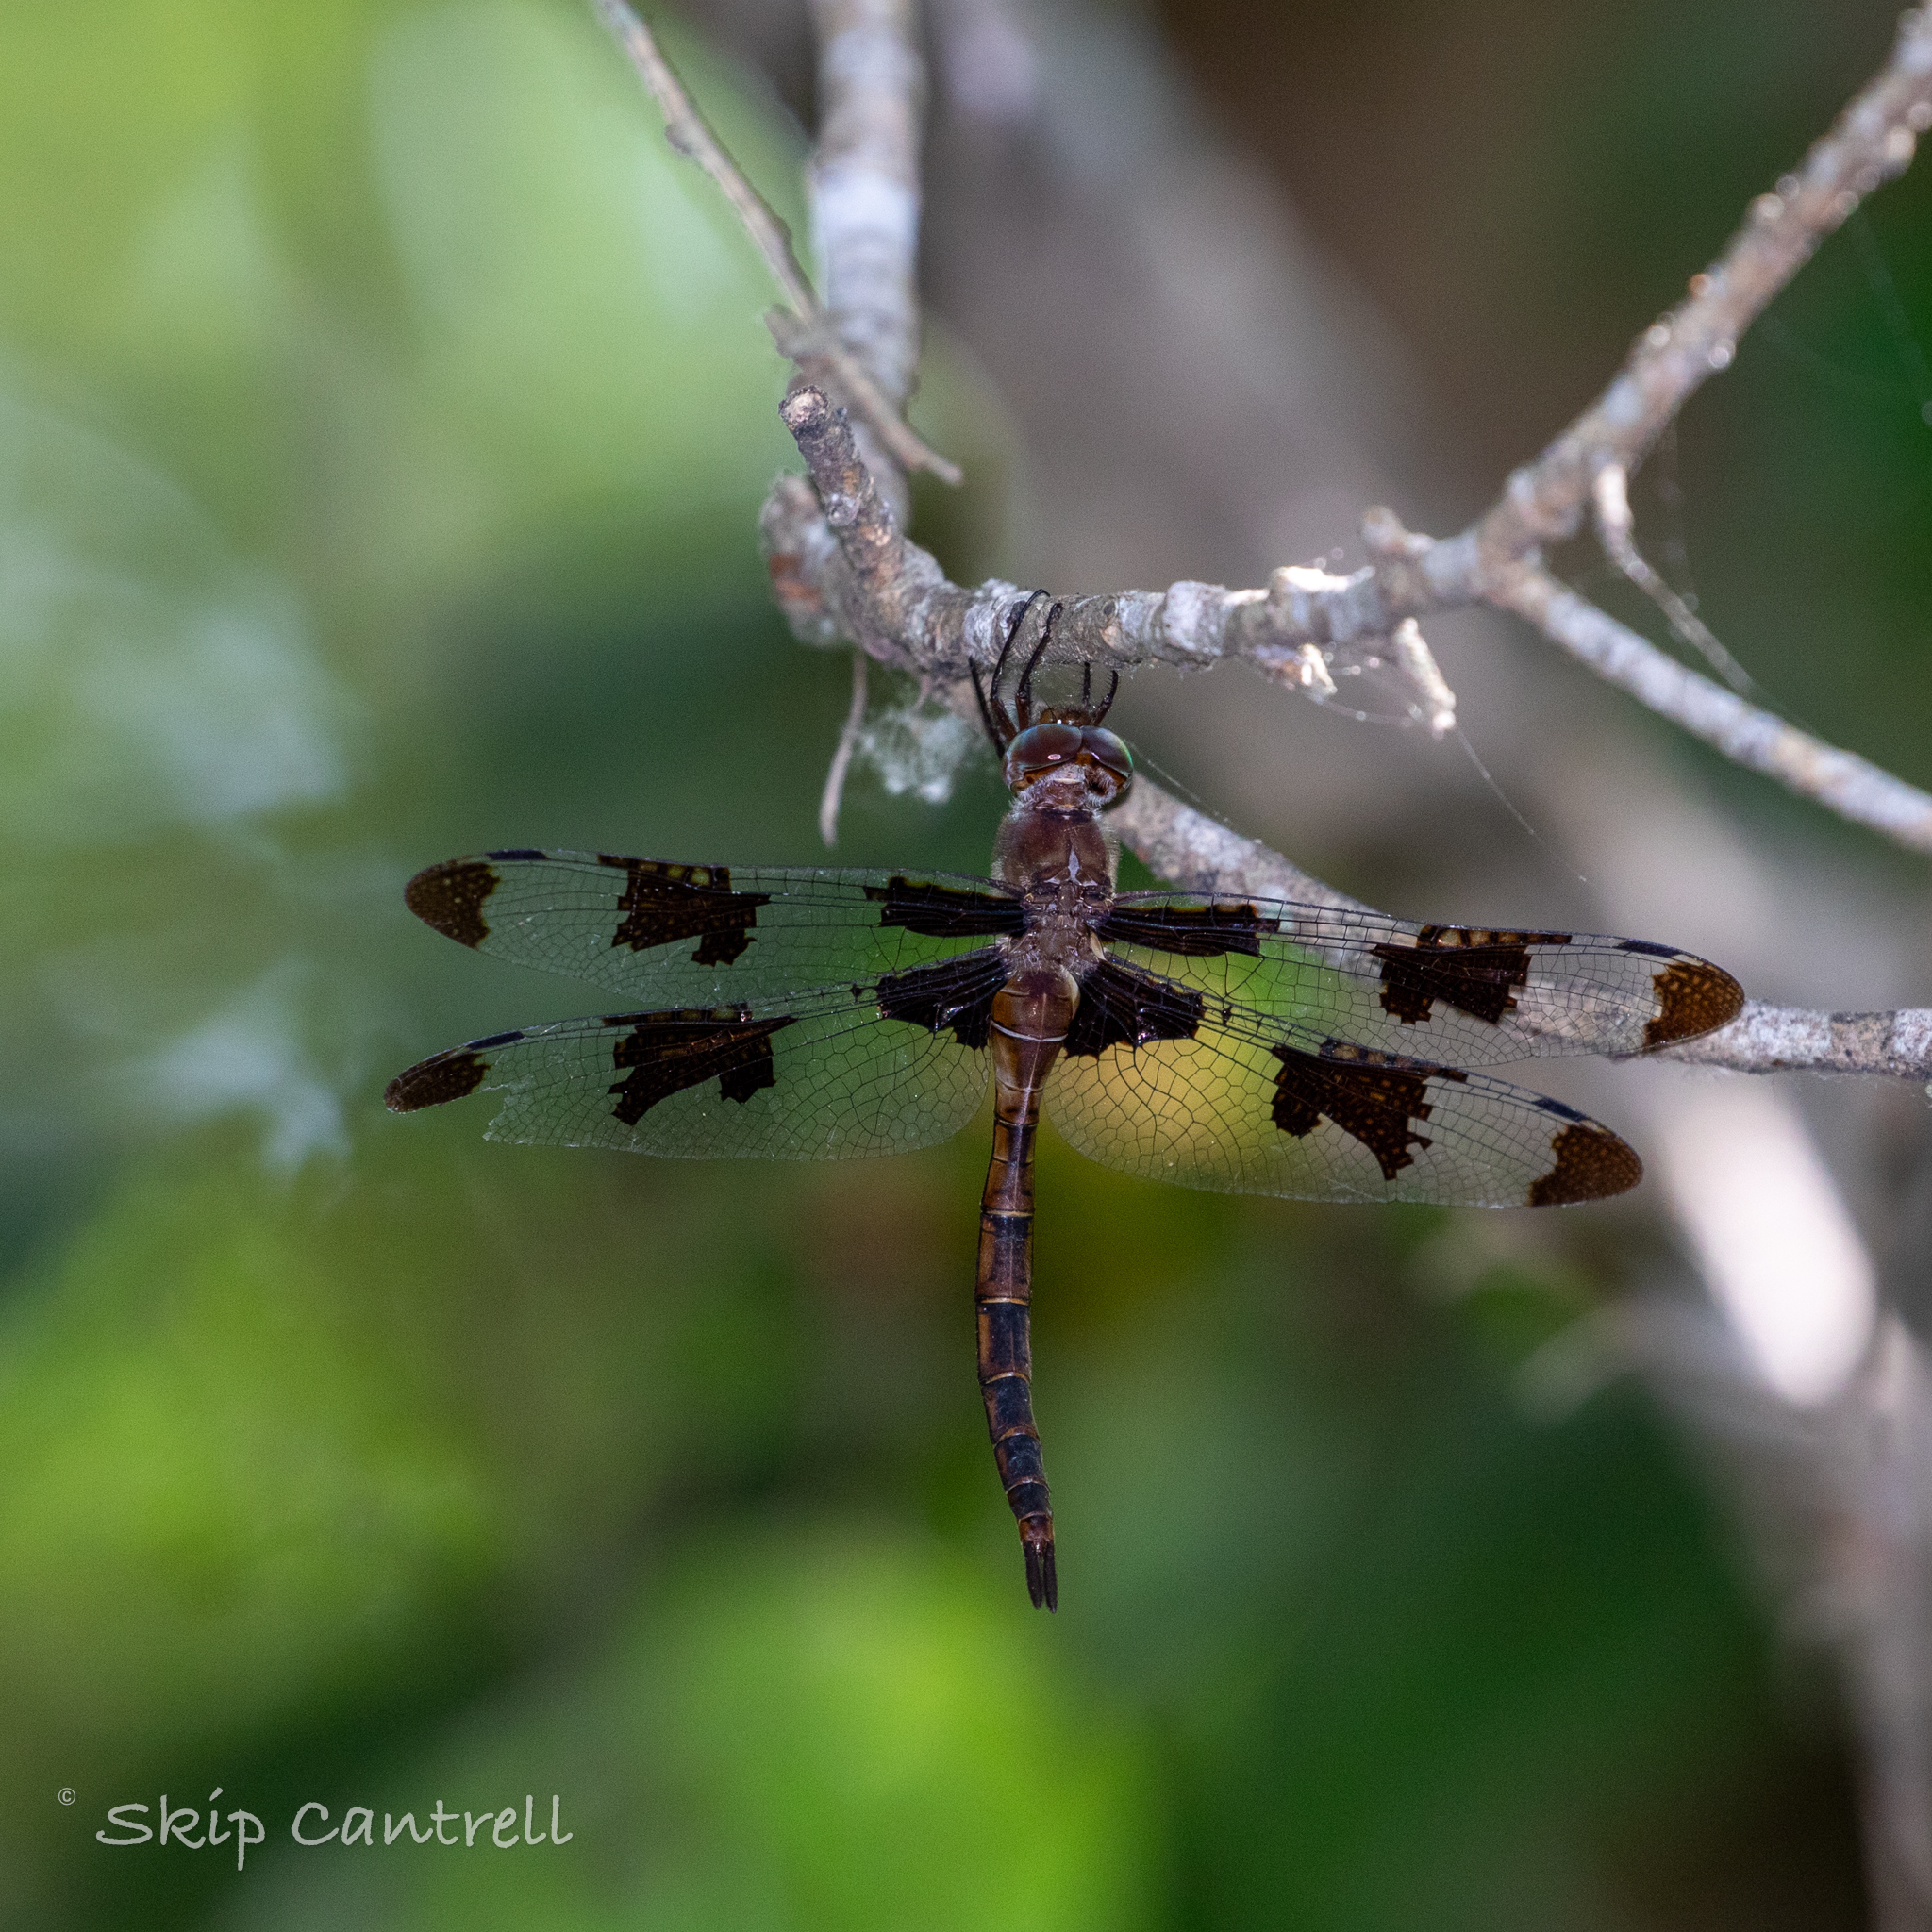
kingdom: Animalia
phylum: Arthropoda
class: Insecta
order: Odonata
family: Corduliidae
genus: Epitheca
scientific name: Epitheca princeps
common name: Prince baskettail
